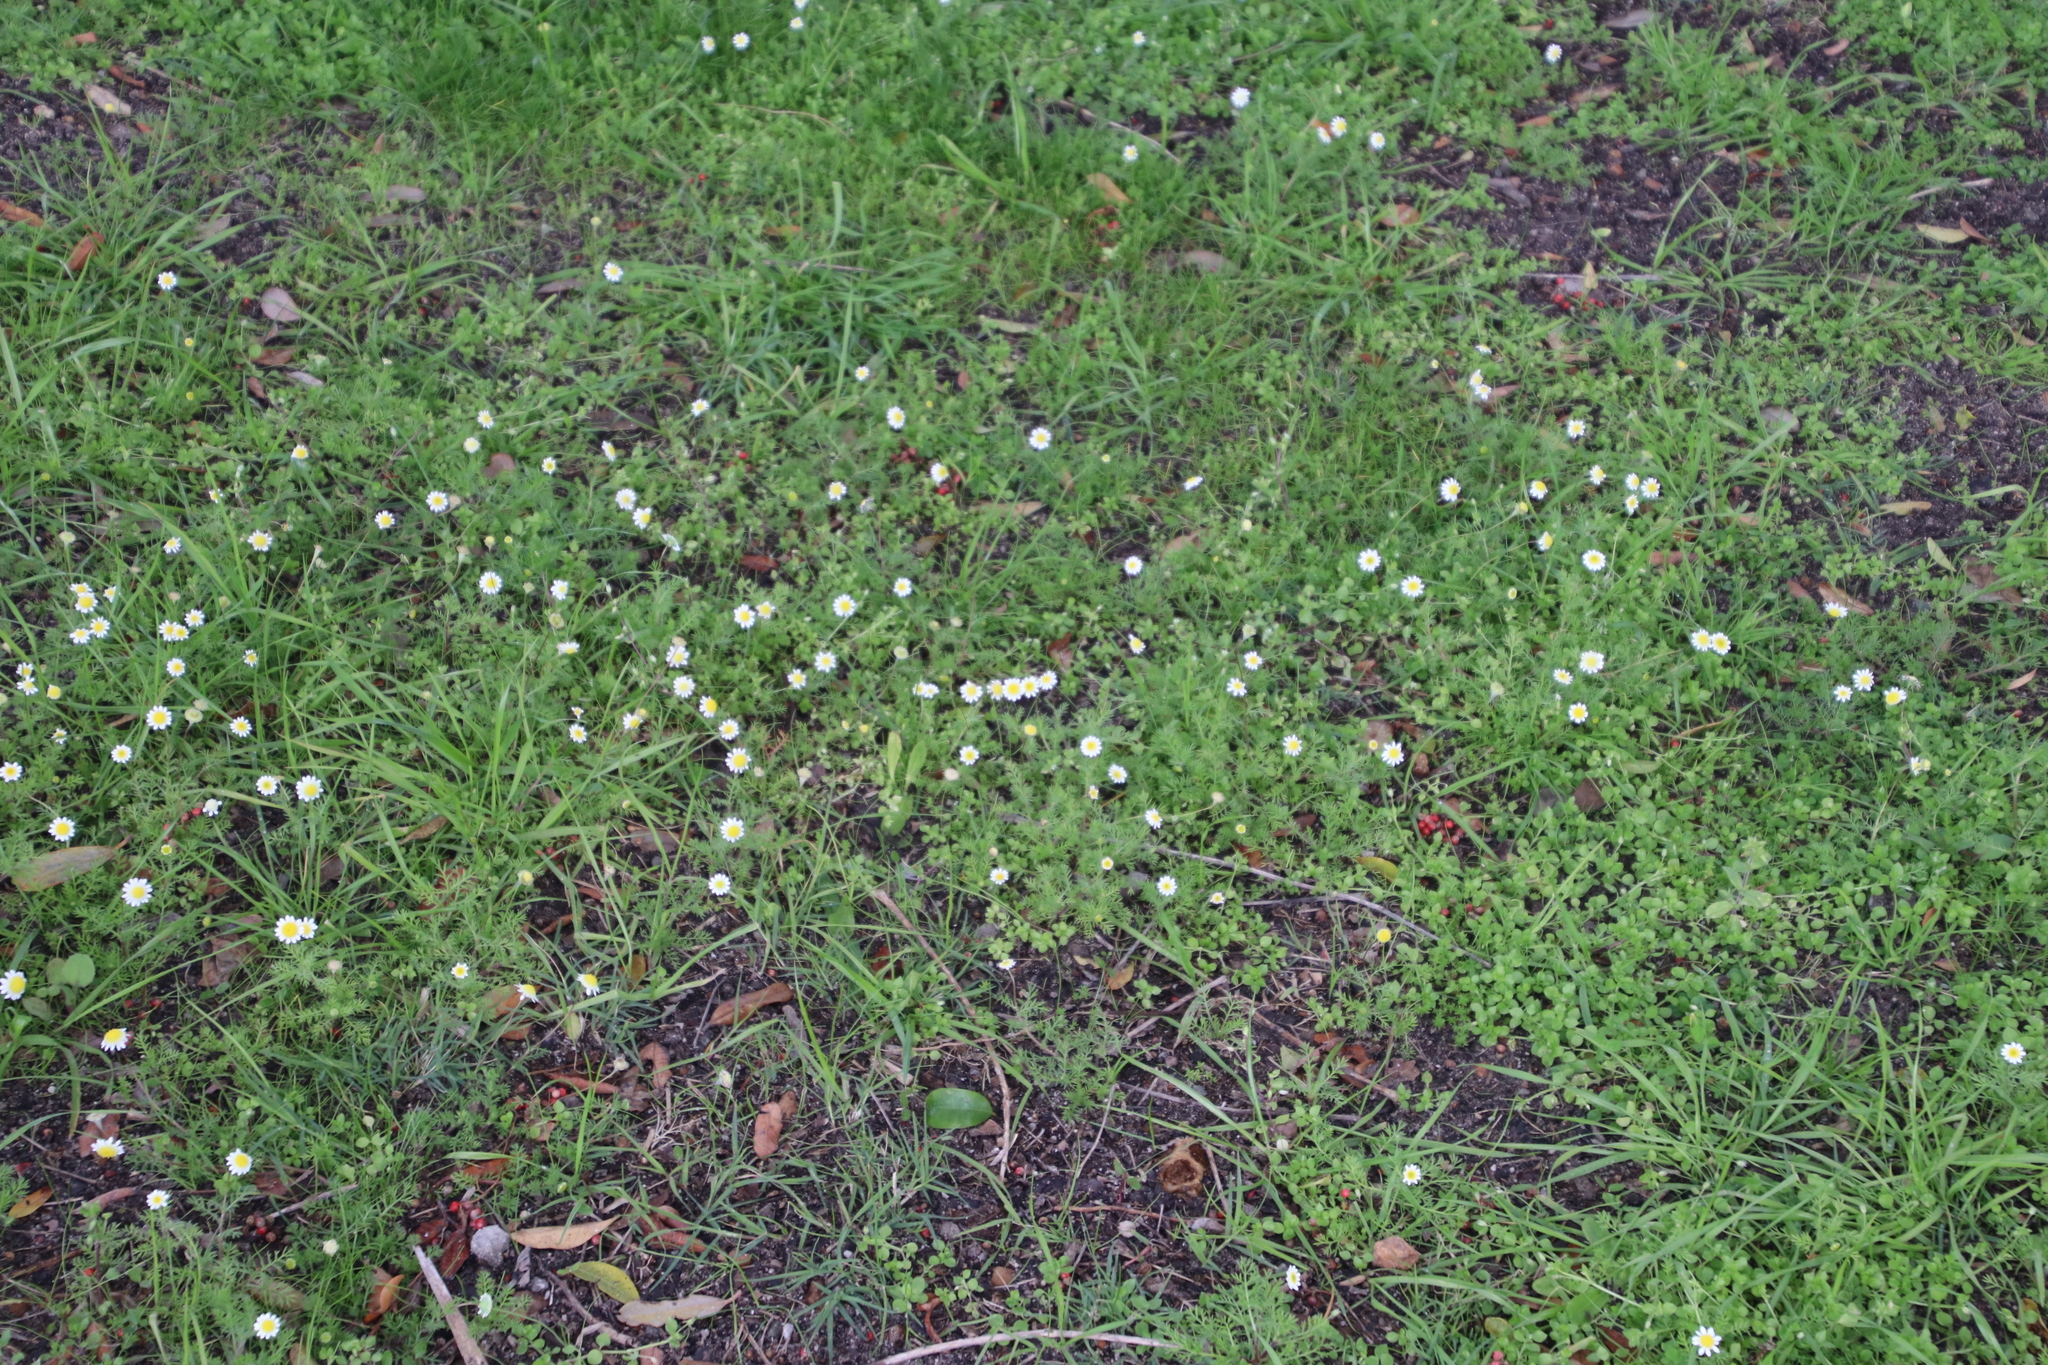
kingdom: Plantae
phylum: Tracheophyta
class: Magnoliopsida
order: Asterales
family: Asteraceae
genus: Cotula
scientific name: Cotula turbinata
